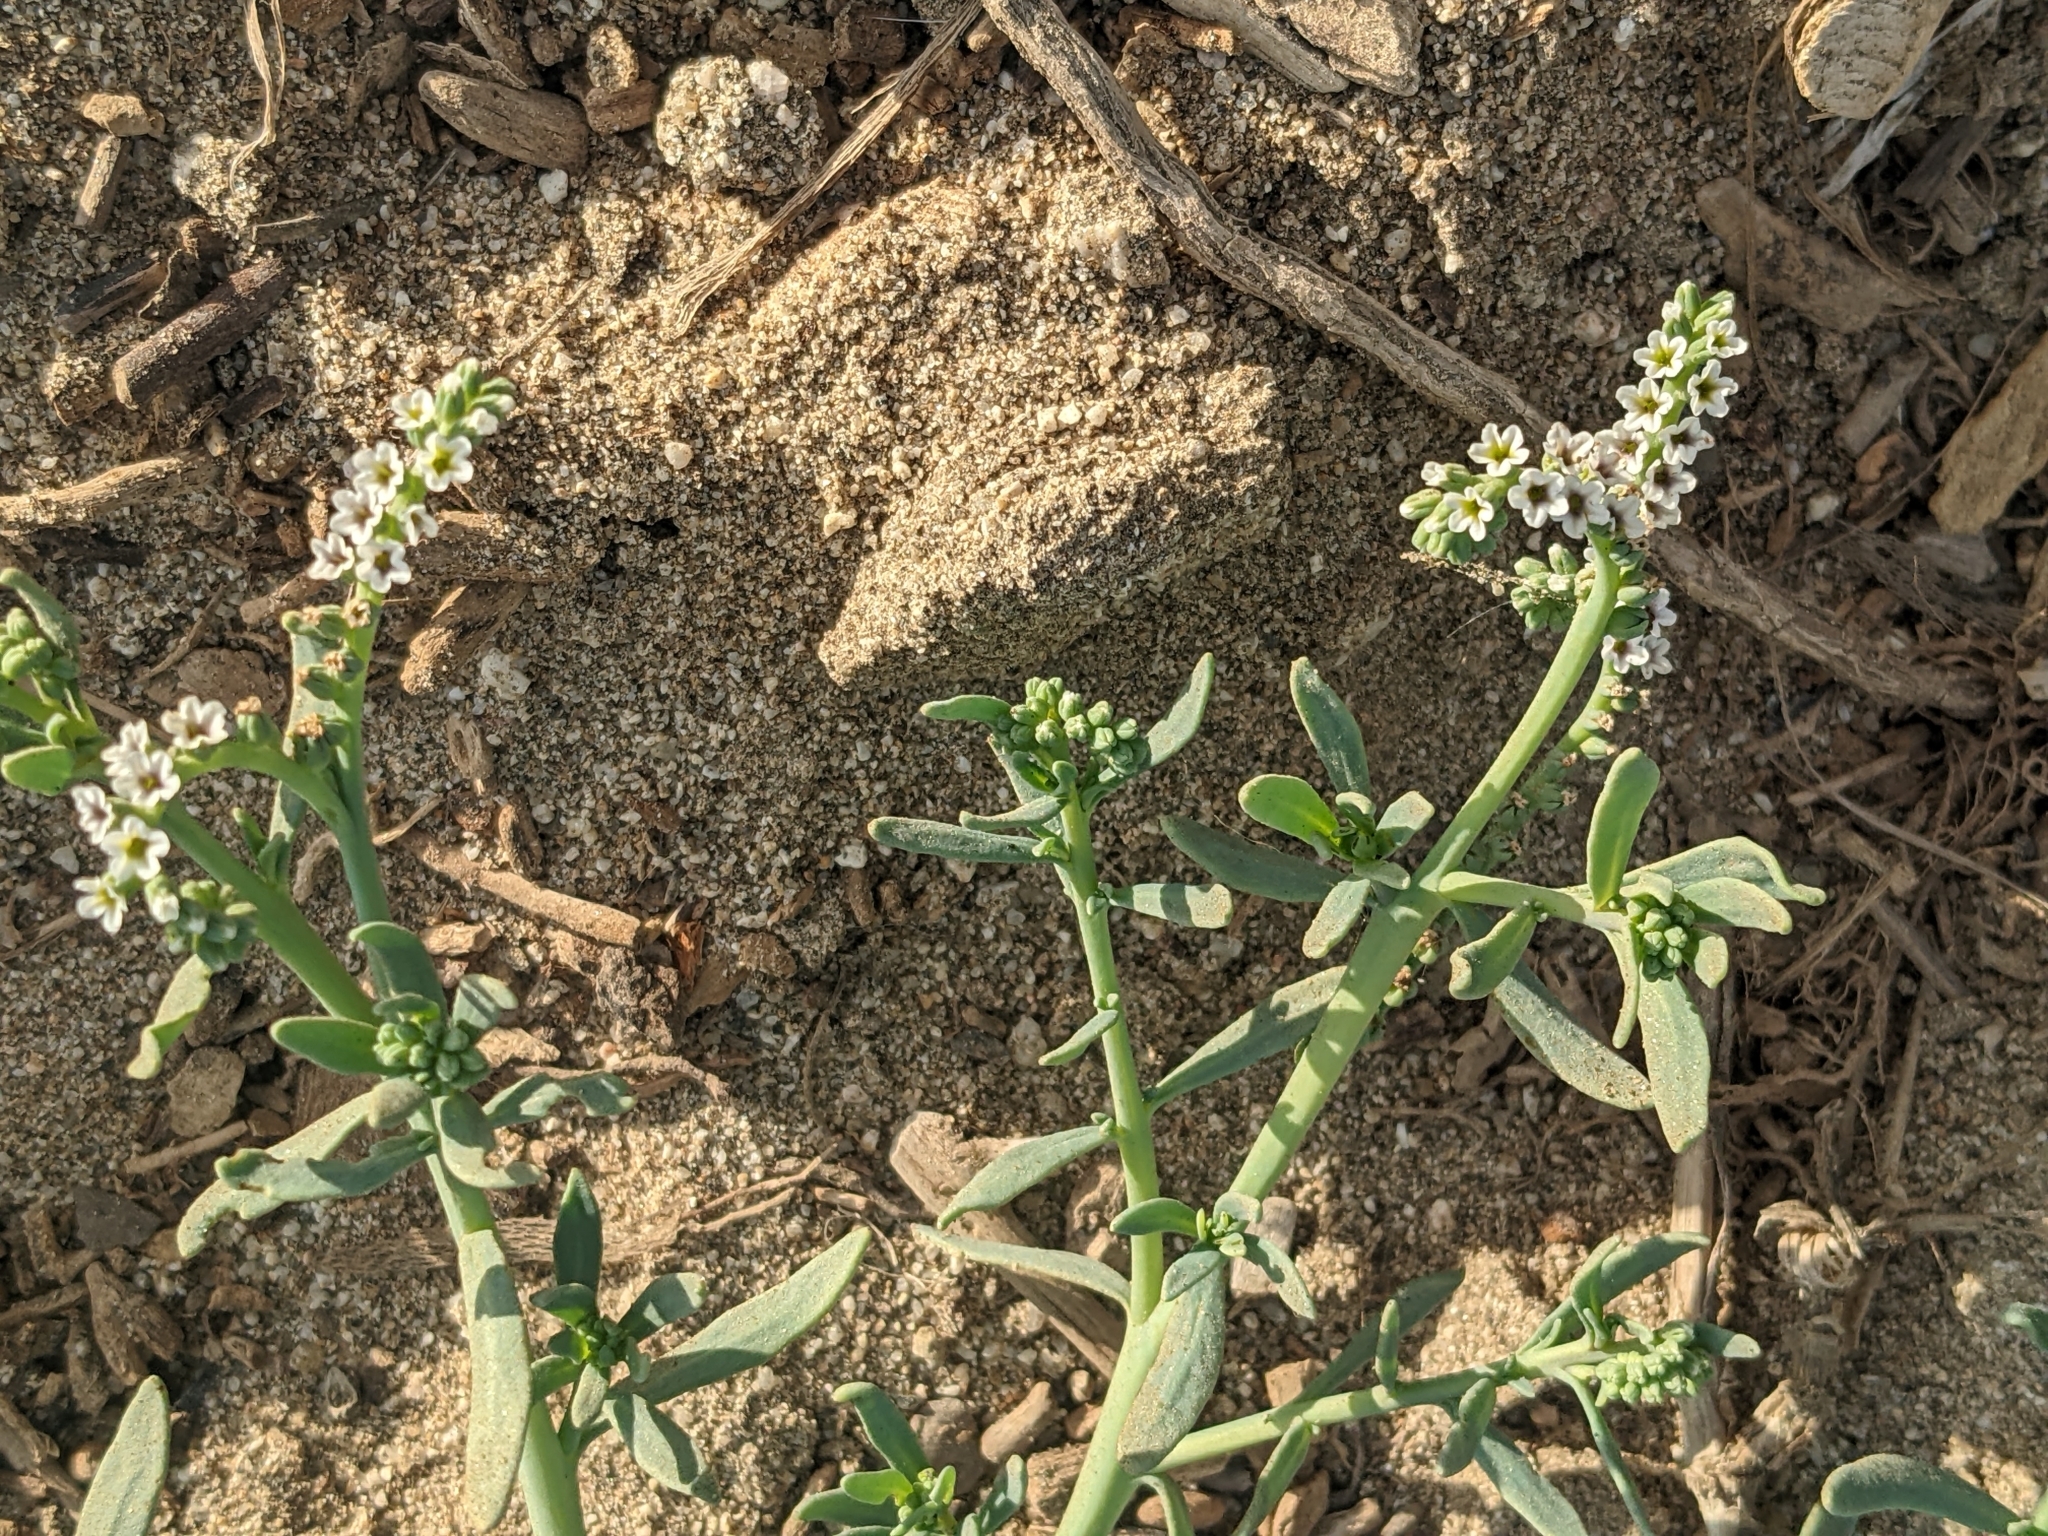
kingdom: Plantae
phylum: Tracheophyta
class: Magnoliopsida
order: Boraginales
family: Heliotropiaceae
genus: Heliotropium
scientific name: Heliotropium curassavicum
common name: Seaside heliotrope
